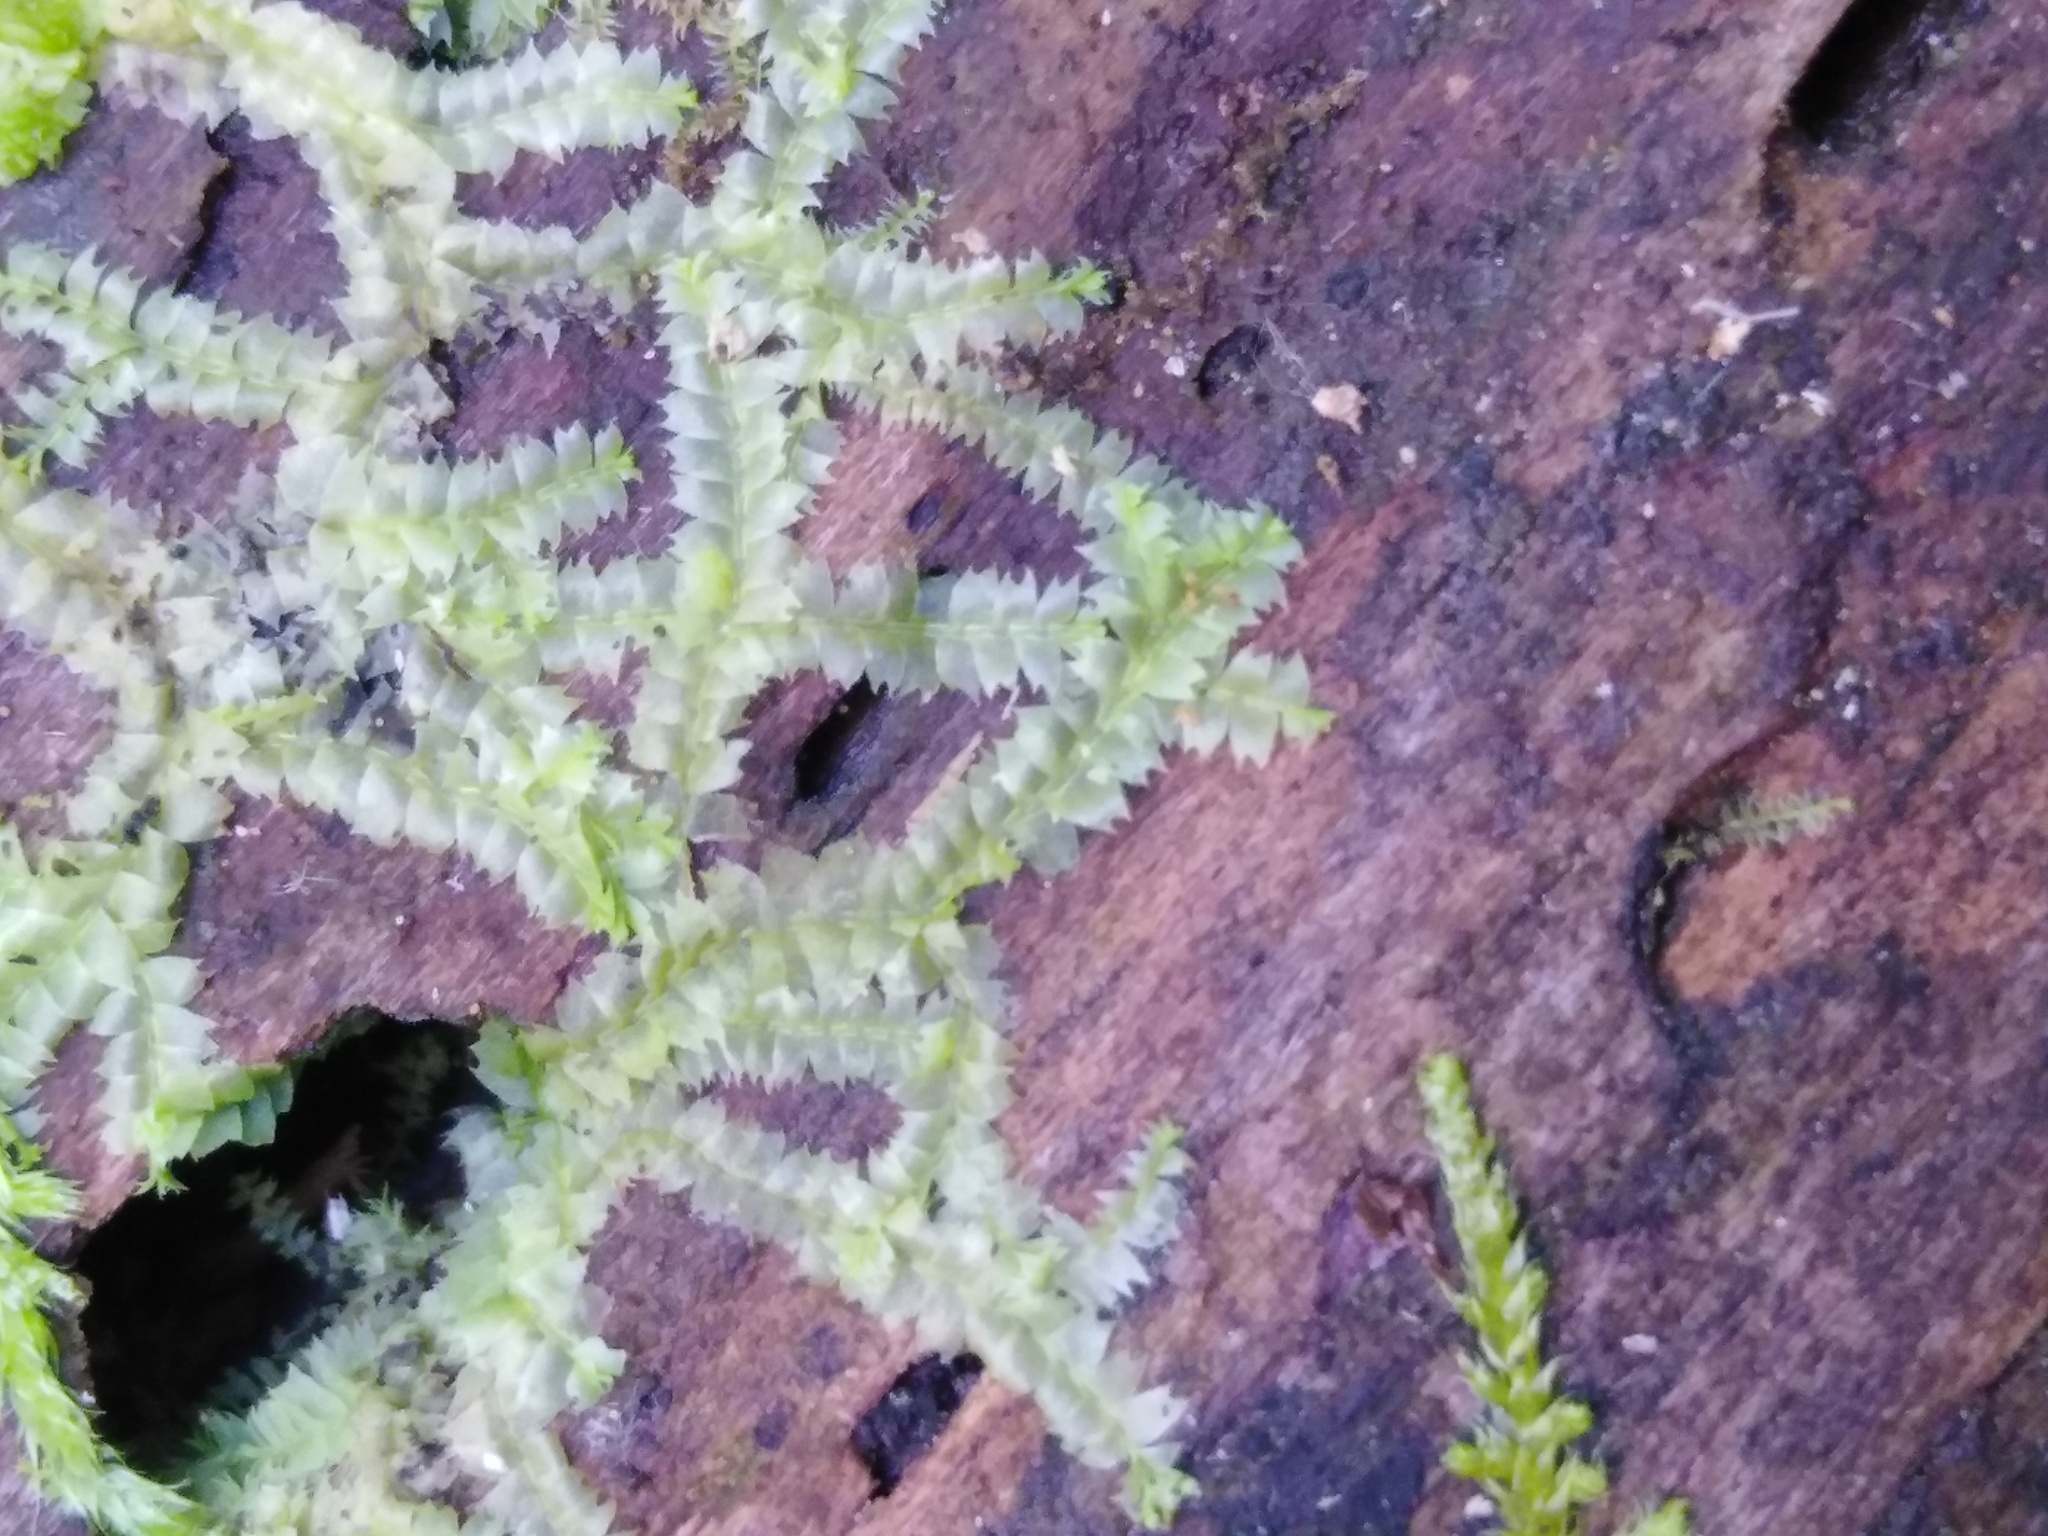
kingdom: Plantae
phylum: Marchantiophyta
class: Jungermanniopsida
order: Jungermanniales
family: Lophocoleaceae
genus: Lophocolea
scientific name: Lophocolea heterophylla
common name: Variable-leaved crestwort
